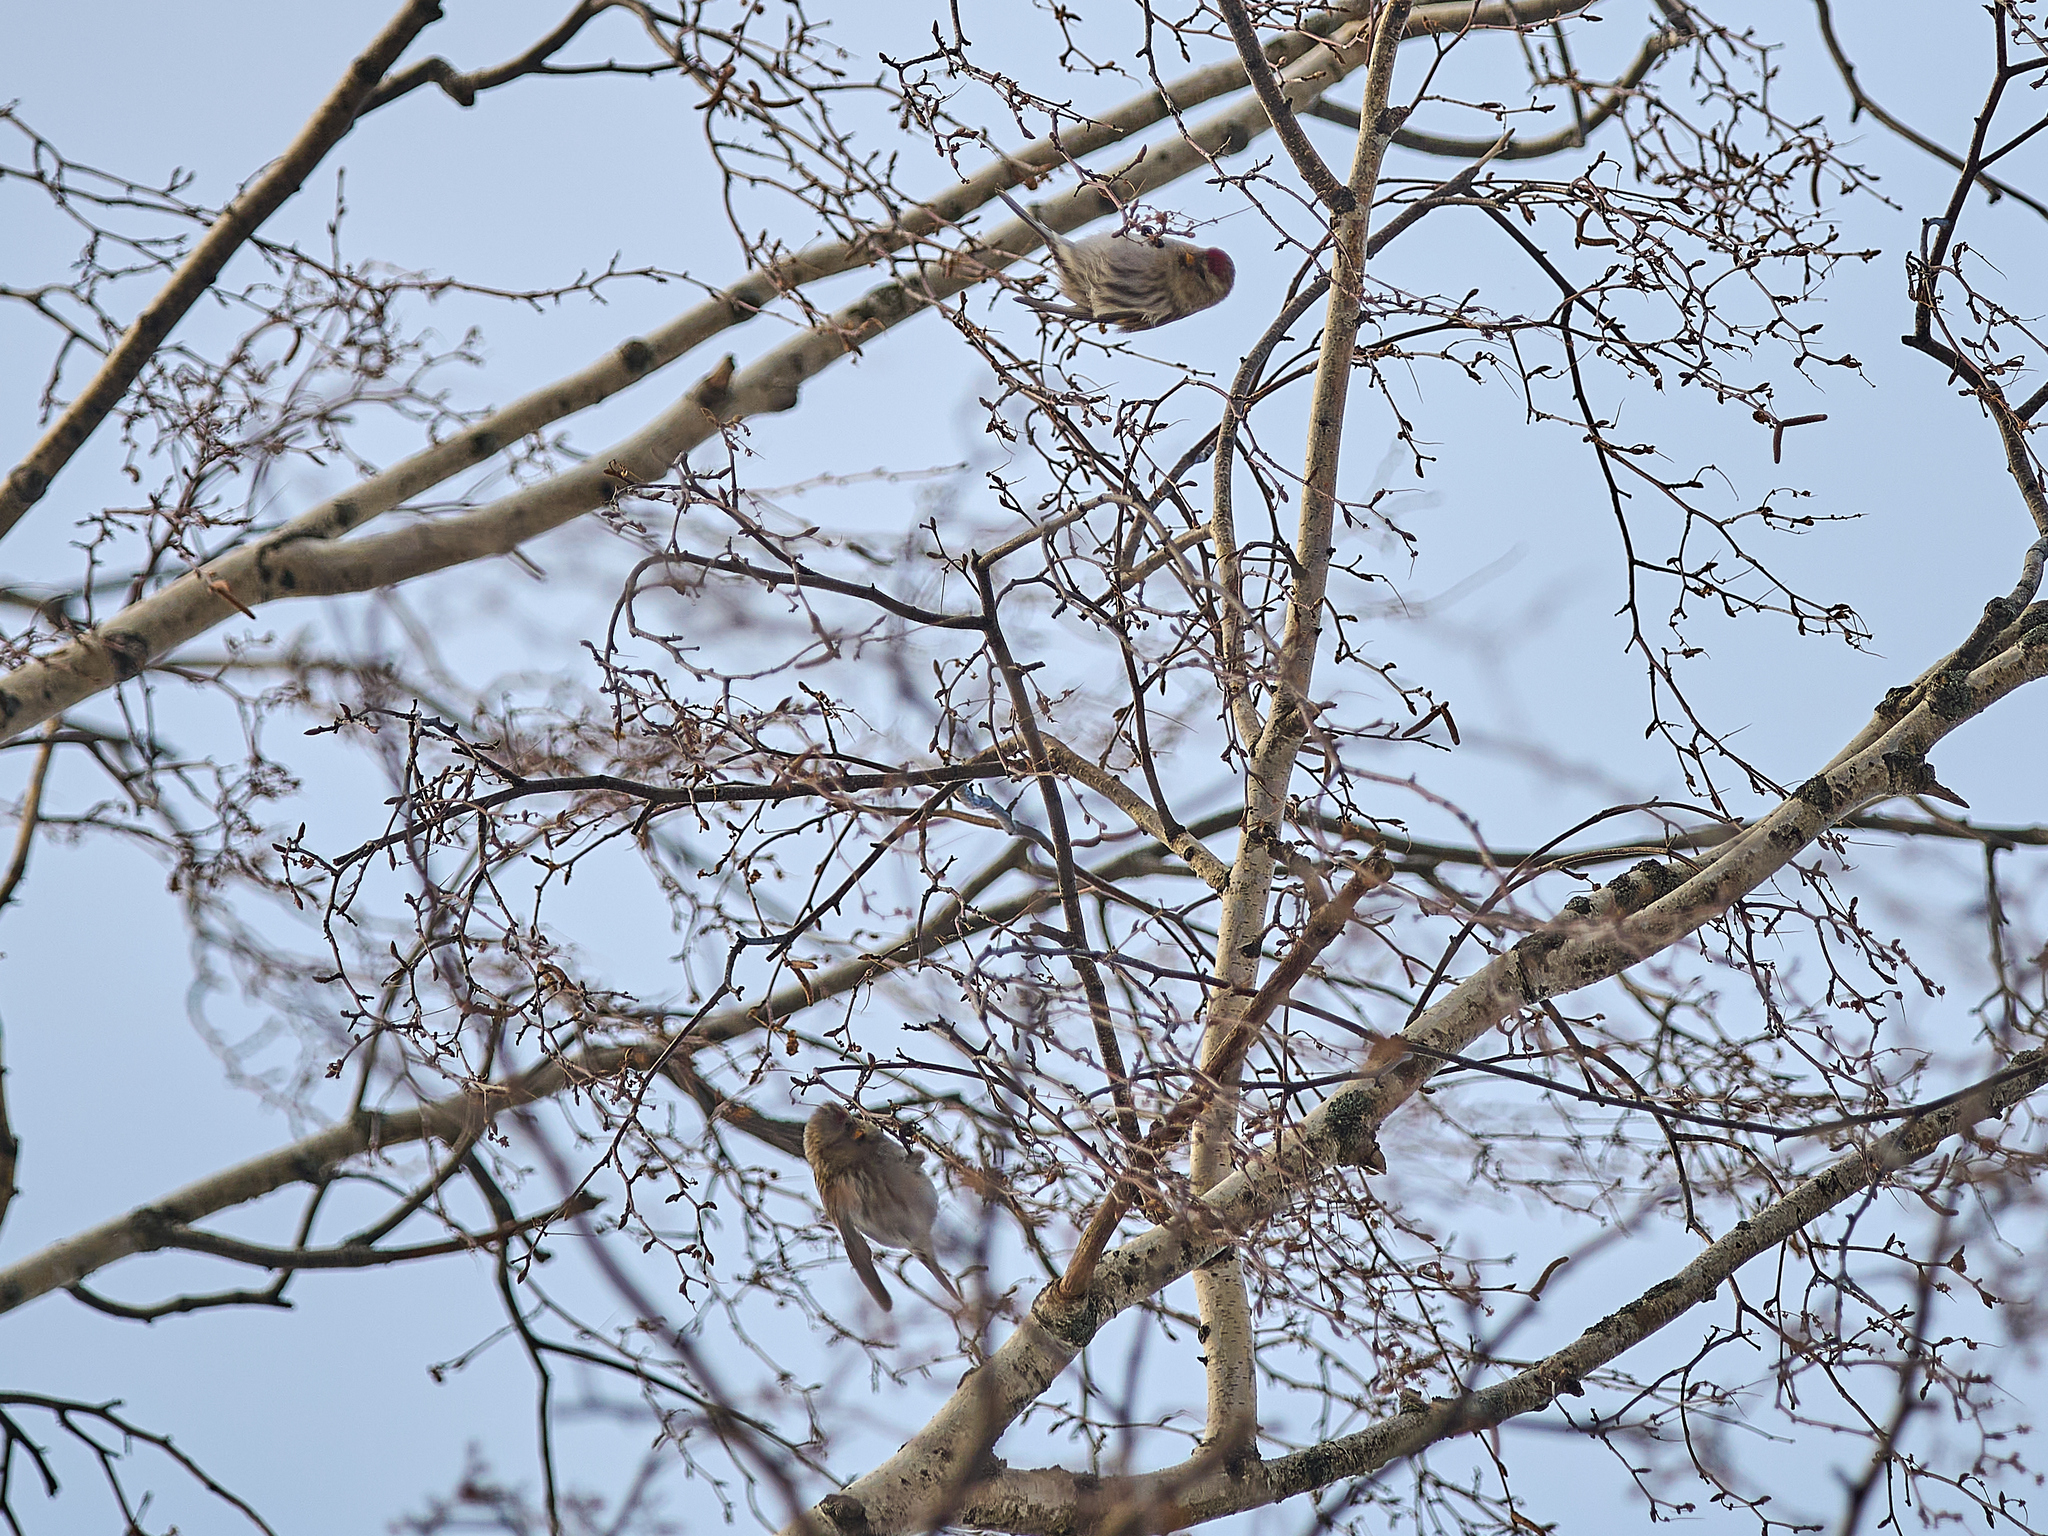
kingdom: Animalia
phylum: Chordata
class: Aves
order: Passeriformes
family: Fringillidae
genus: Acanthis
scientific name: Acanthis flammea
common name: Common redpoll
